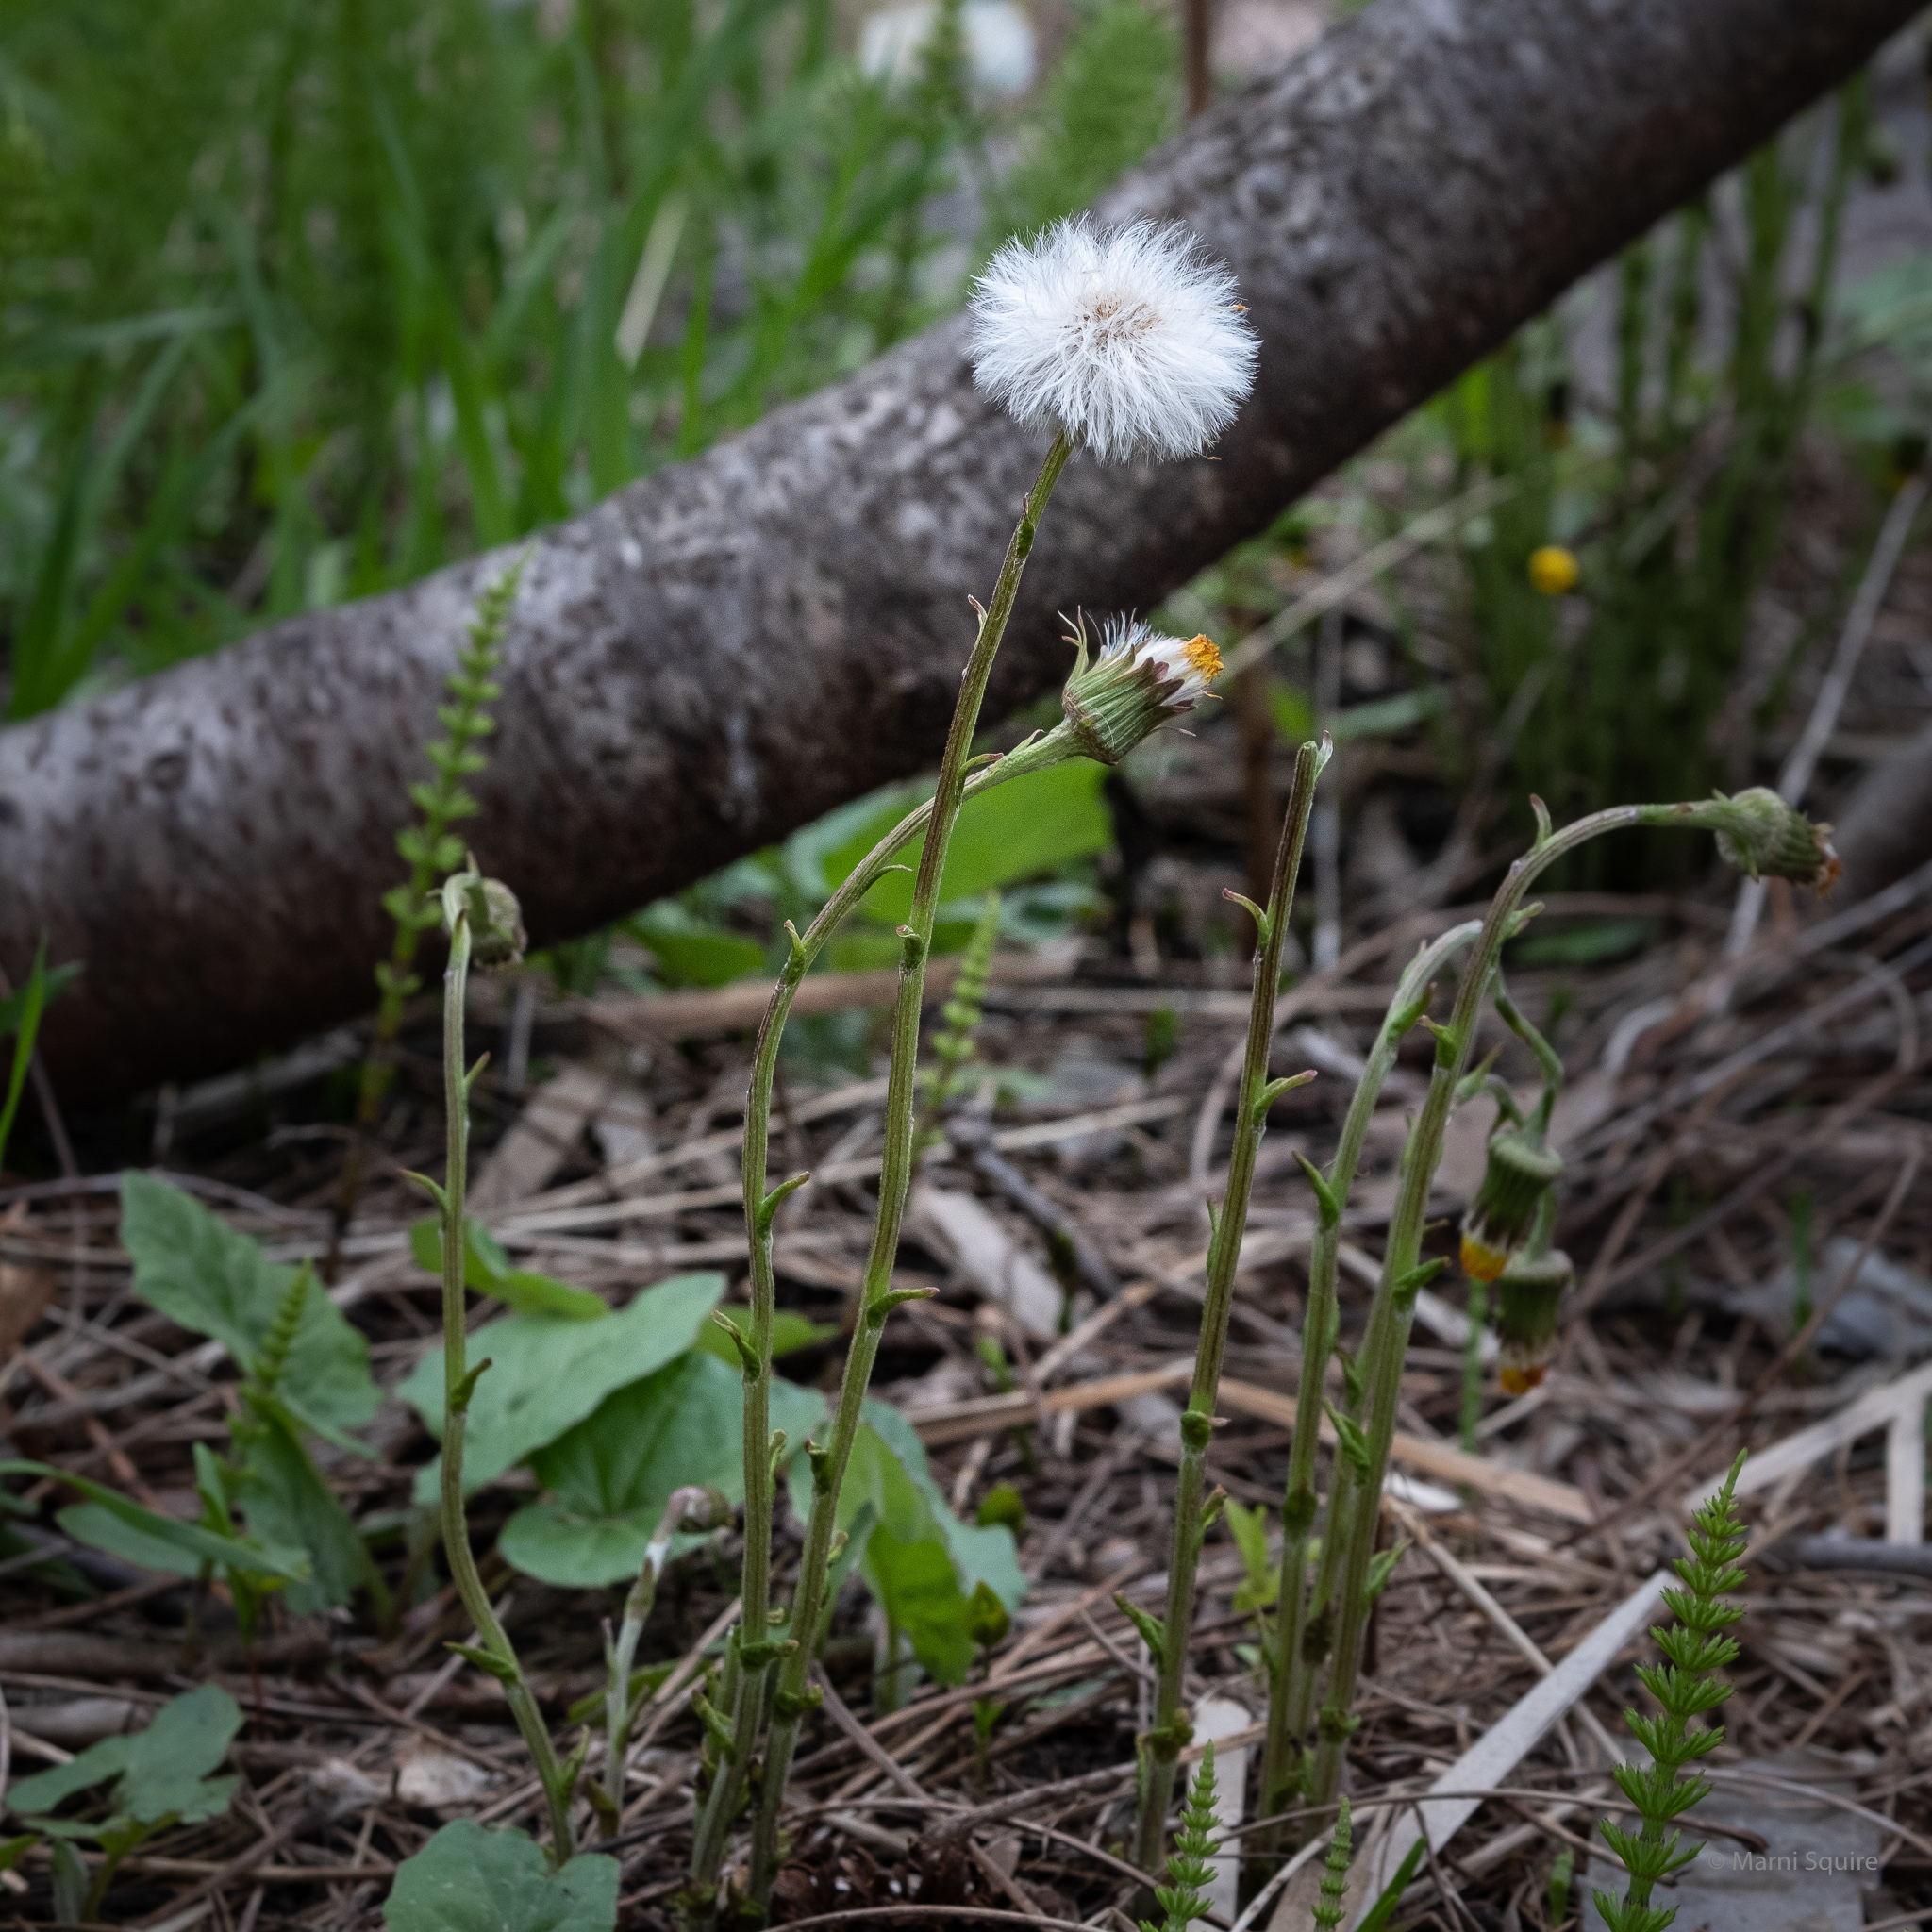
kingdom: Plantae
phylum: Tracheophyta
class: Magnoliopsida
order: Asterales
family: Asteraceae
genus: Tussilago
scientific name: Tussilago farfara
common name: Coltsfoot
